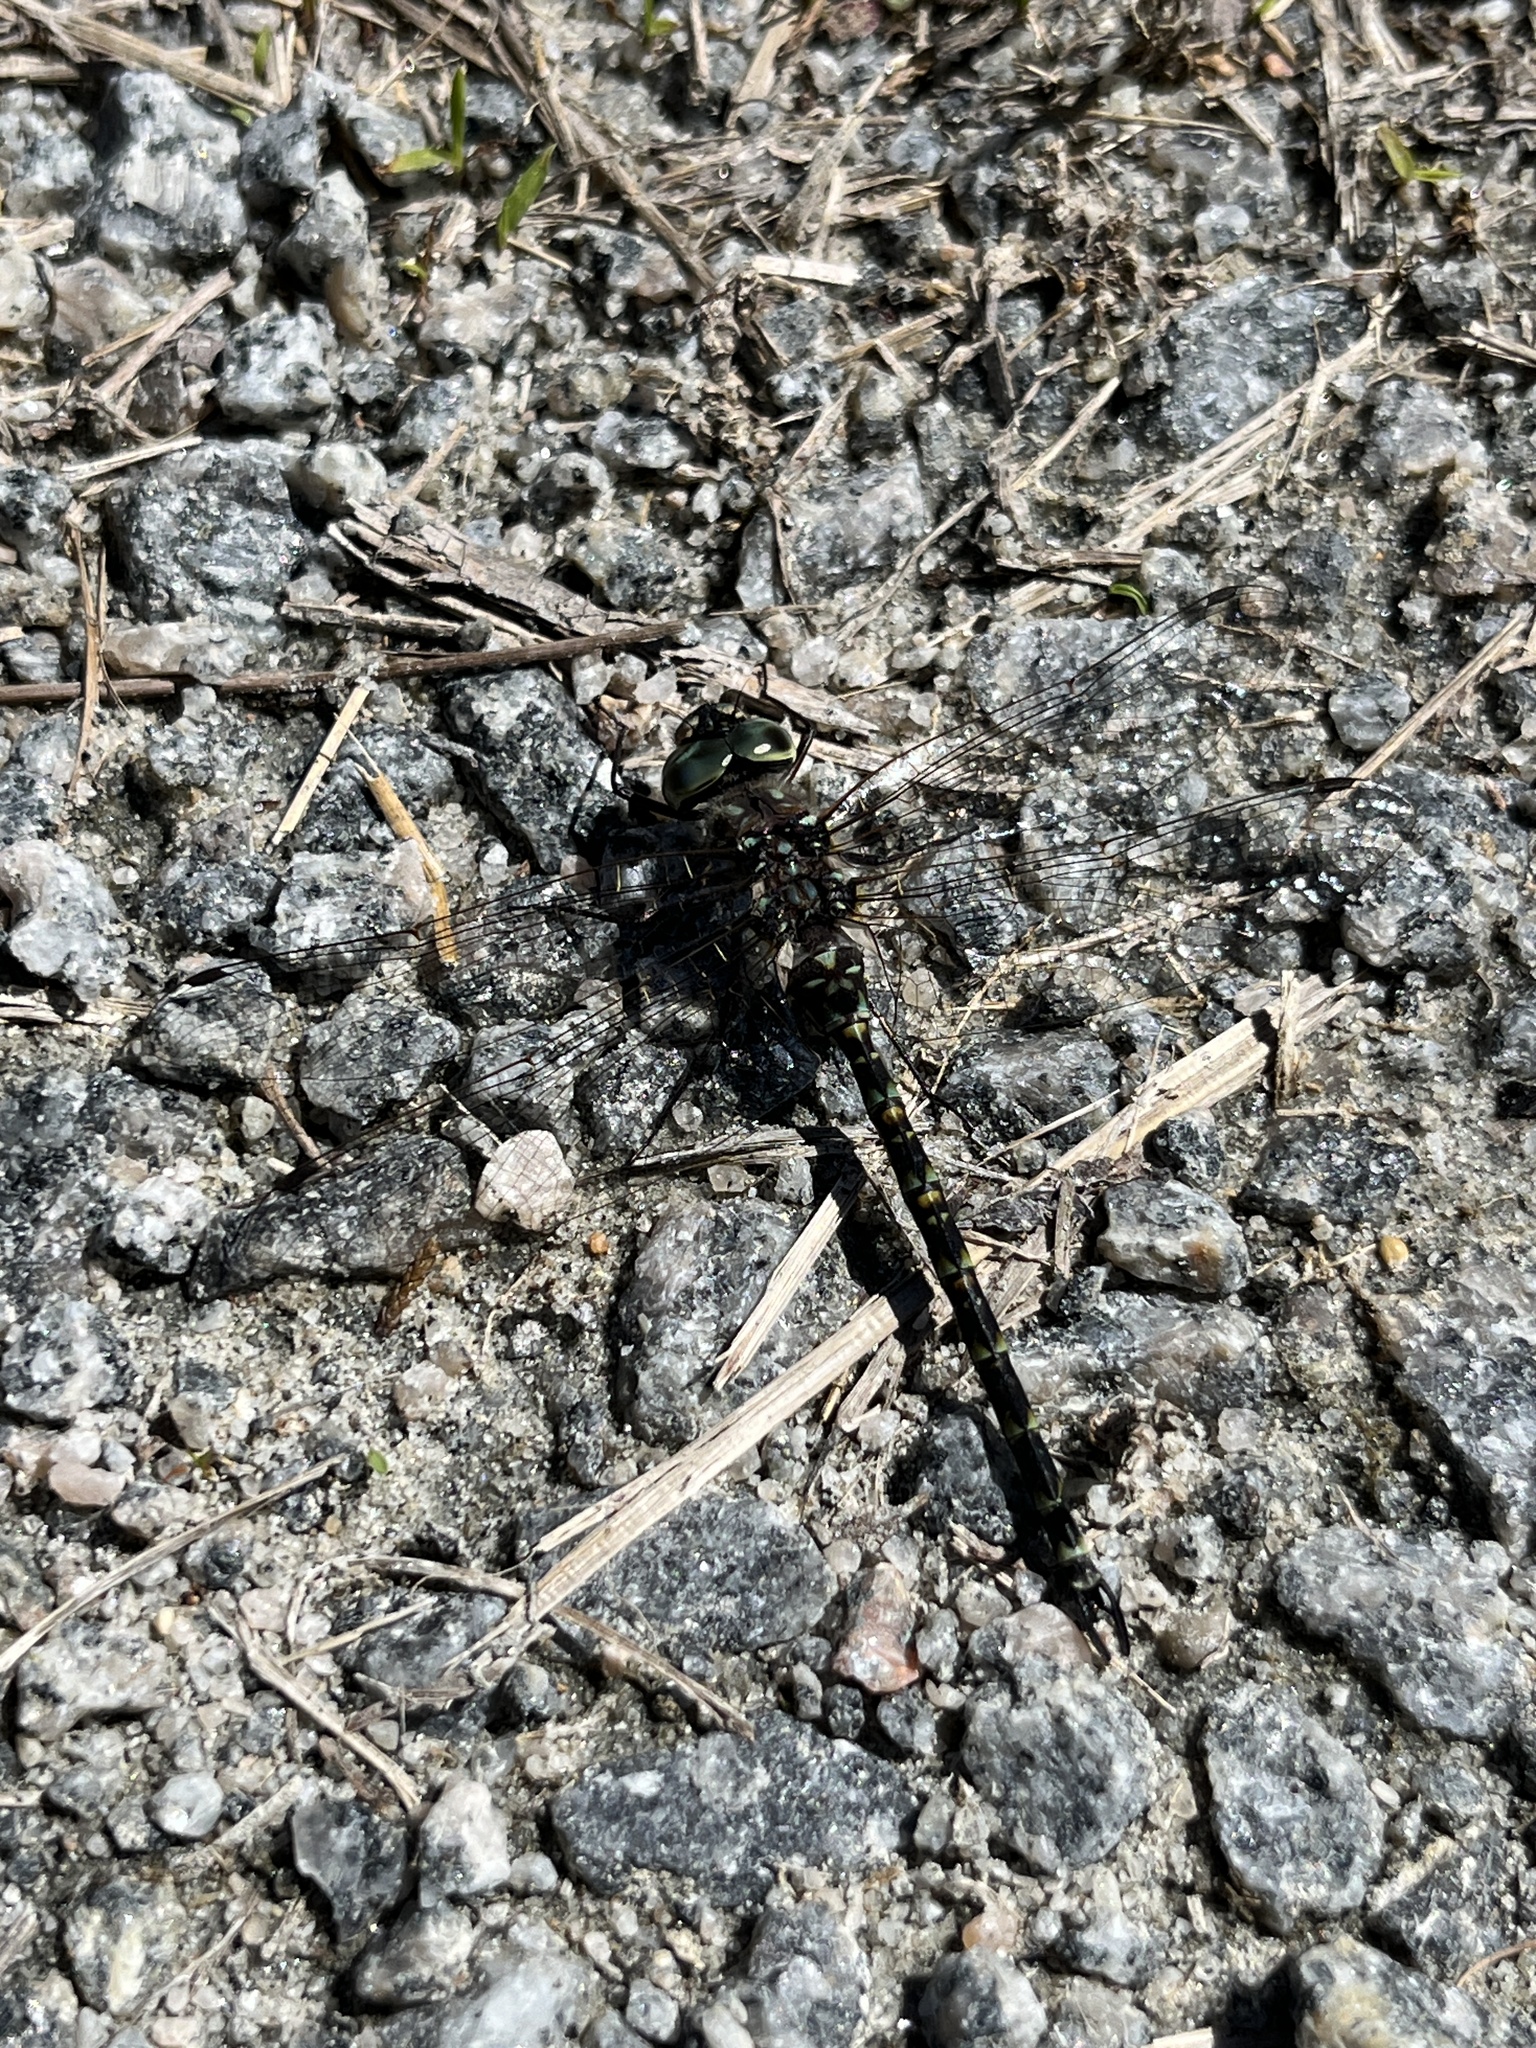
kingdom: Animalia
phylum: Arthropoda
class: Insecta
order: Odonata
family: Aeshnidae
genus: Gomphaeschna
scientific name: Gomphaeschna furcillata
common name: Harlequin darner
